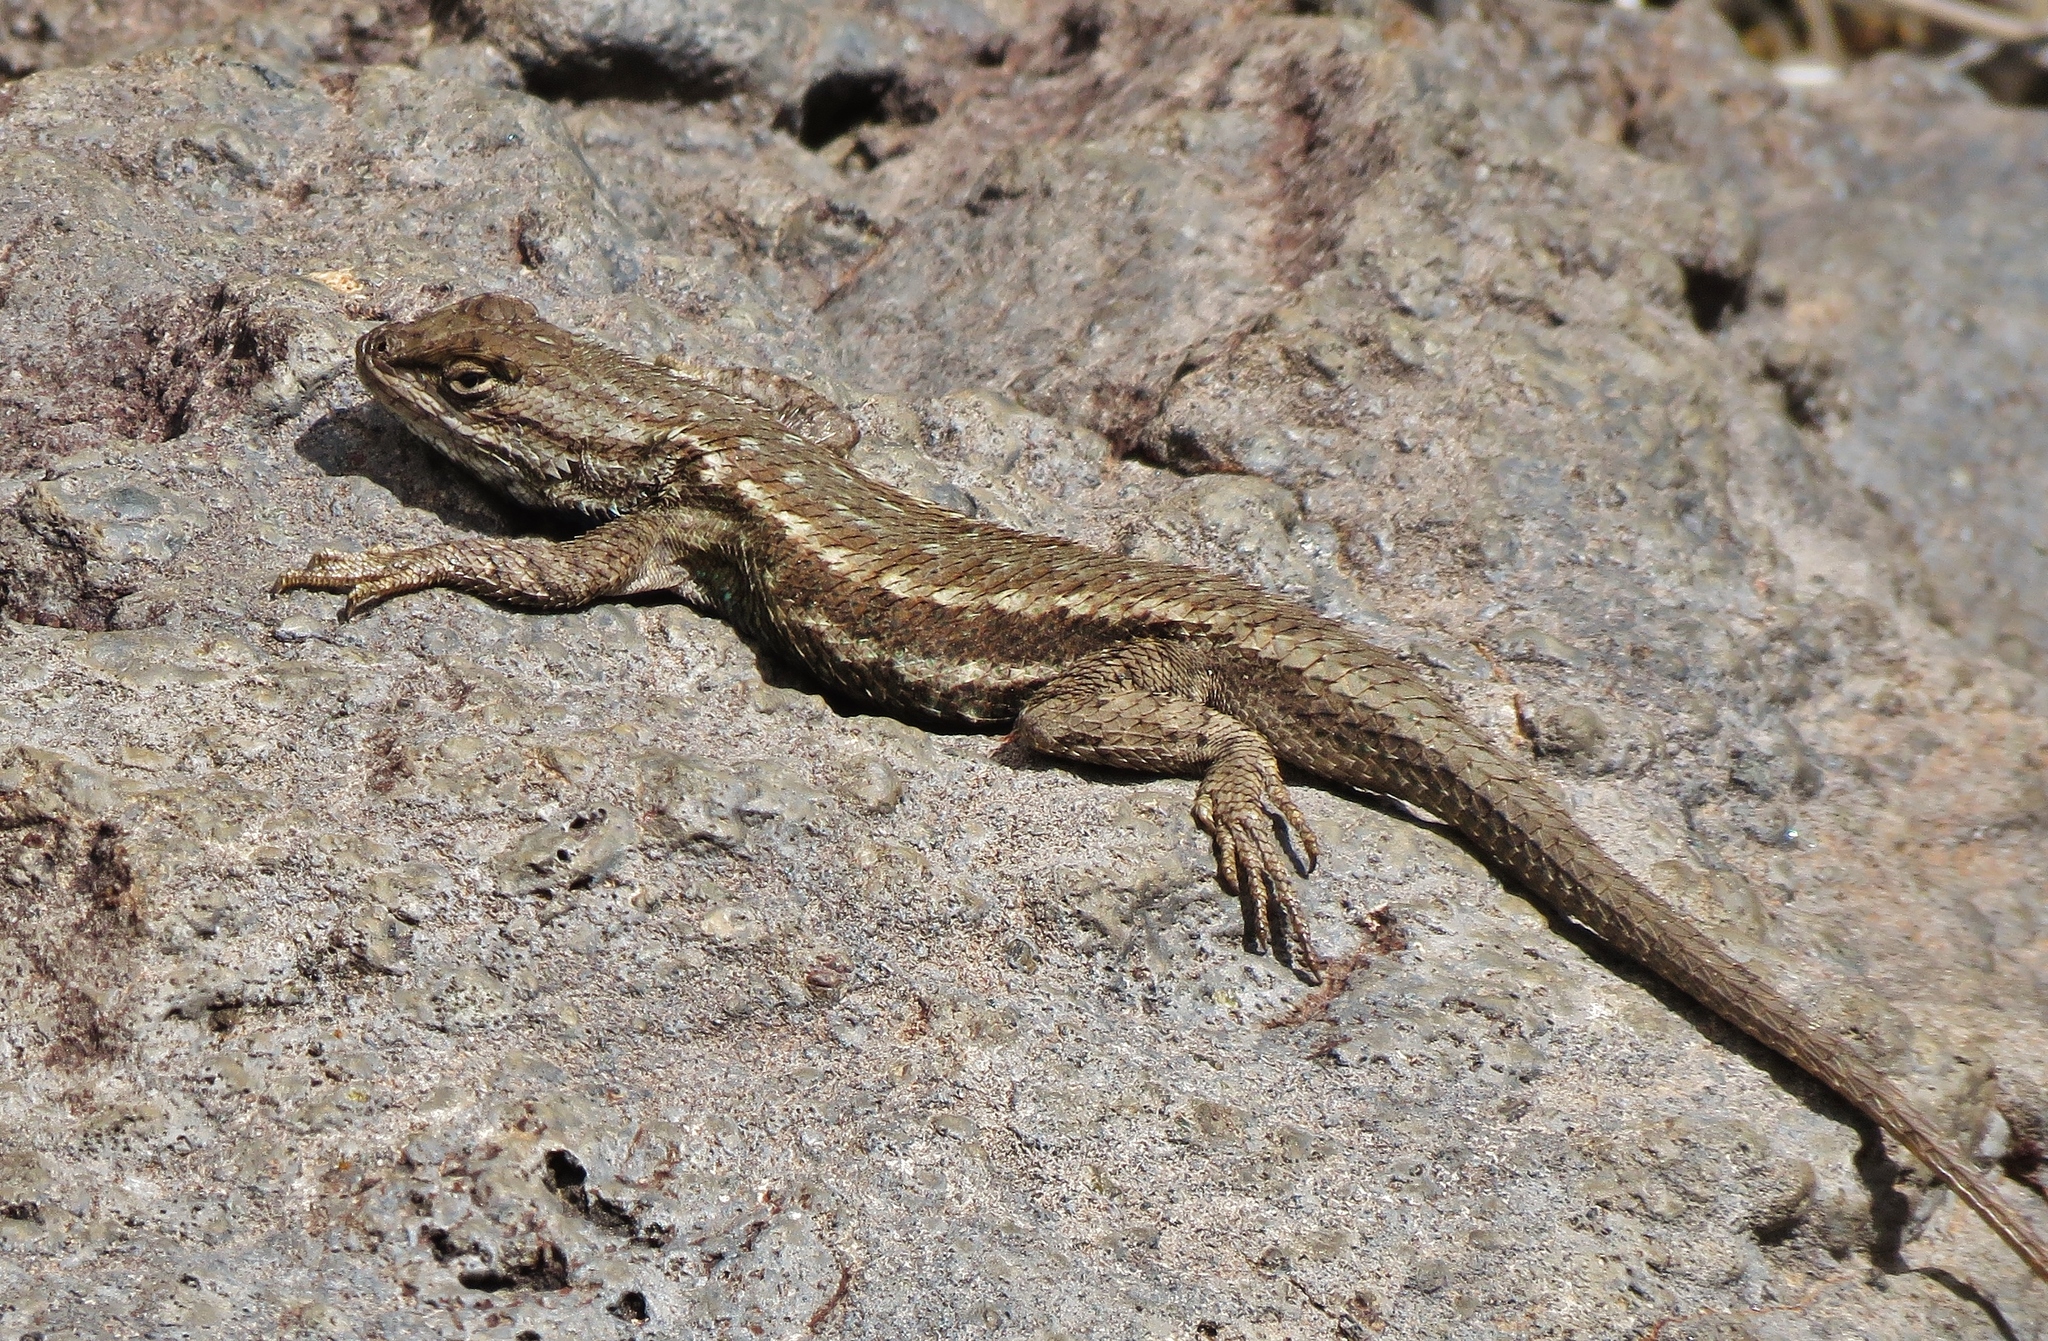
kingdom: Animalia
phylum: Chordata
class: Squamata
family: Phrynosomatidae
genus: Sceloporus
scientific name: Sceloporus tristichus
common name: Plateau fence lizard
